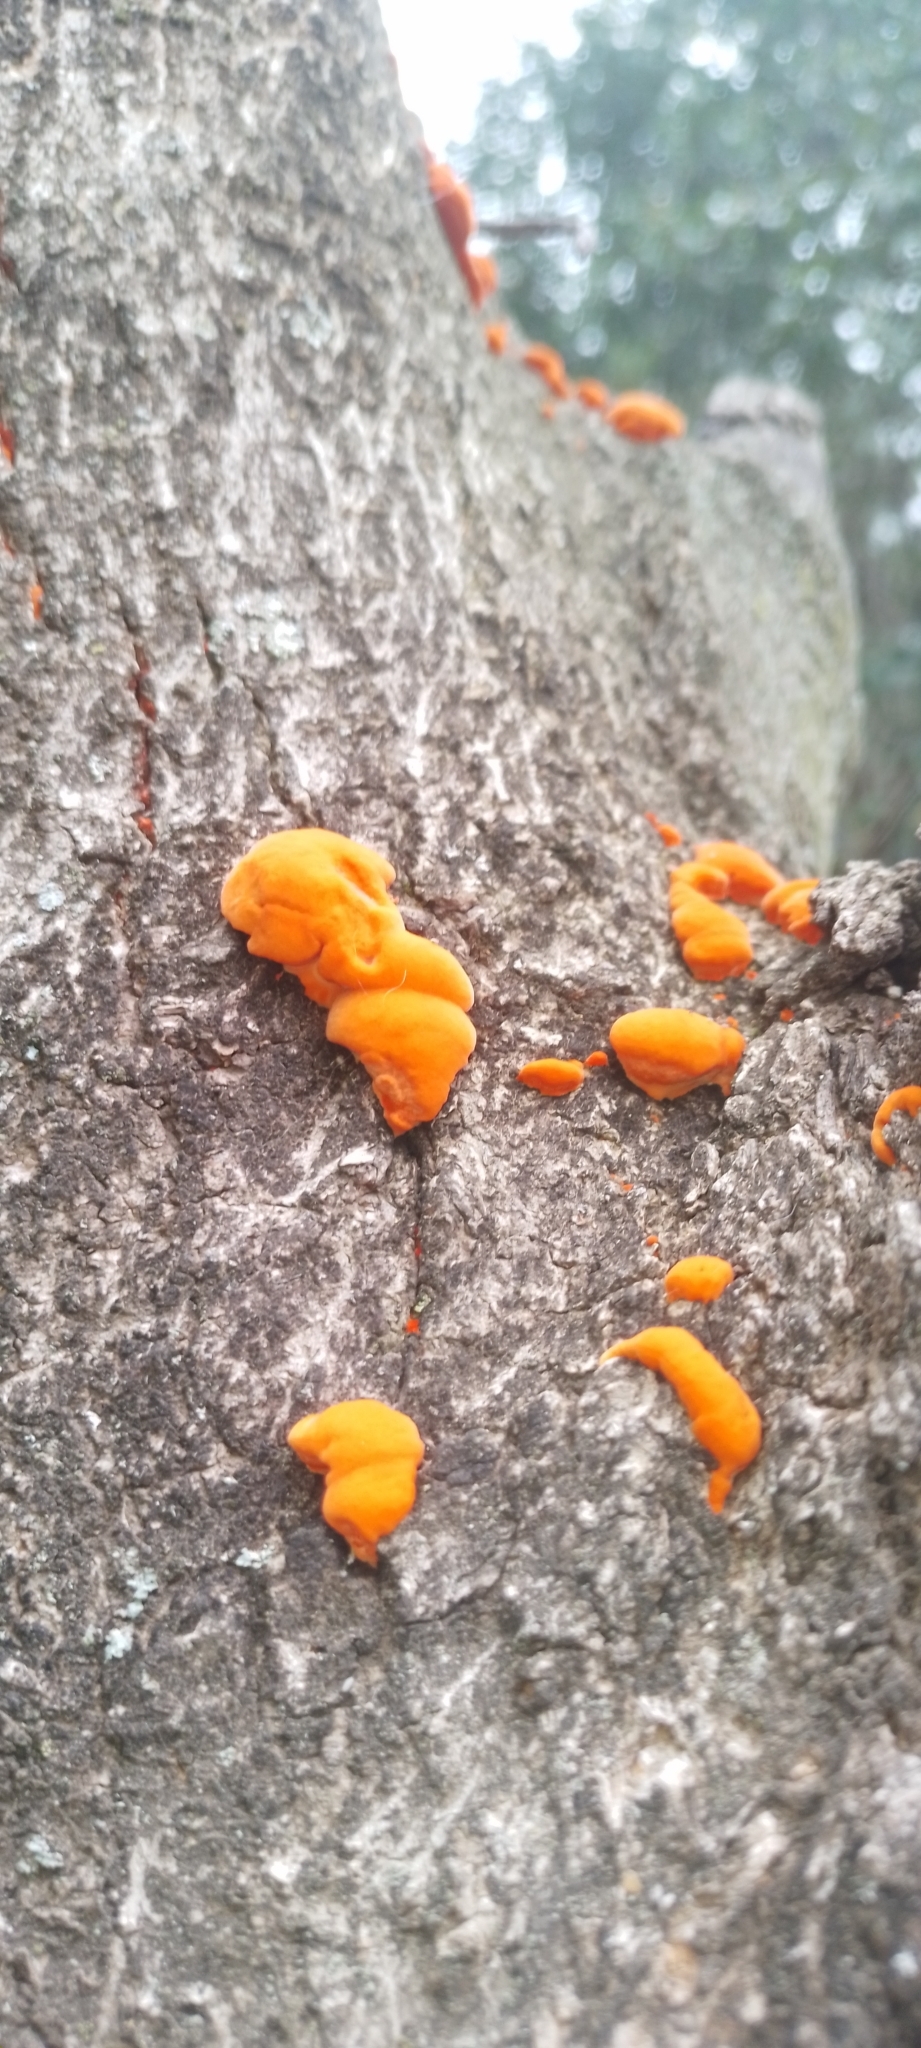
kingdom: Fungi
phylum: Basidiomycota
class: Agaricomycetes
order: Polyporales
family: Polyporaceae
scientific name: Polyporaceae
